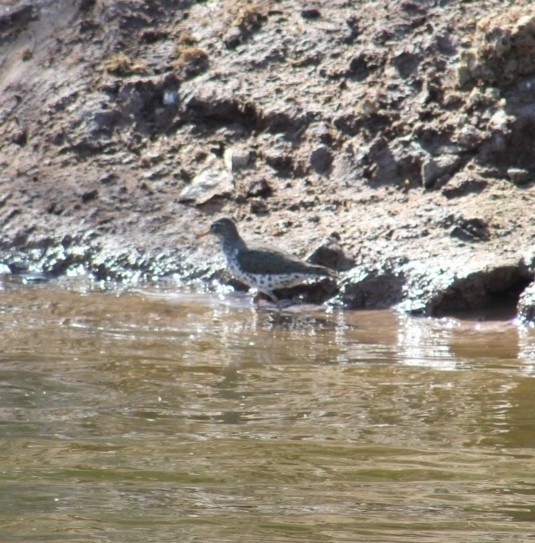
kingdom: Animalia
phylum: Chordata
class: Aves
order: Charadriiformes
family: Scolopacidae
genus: Actitis
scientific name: Actitis macularius
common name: Spotted sandpiper
